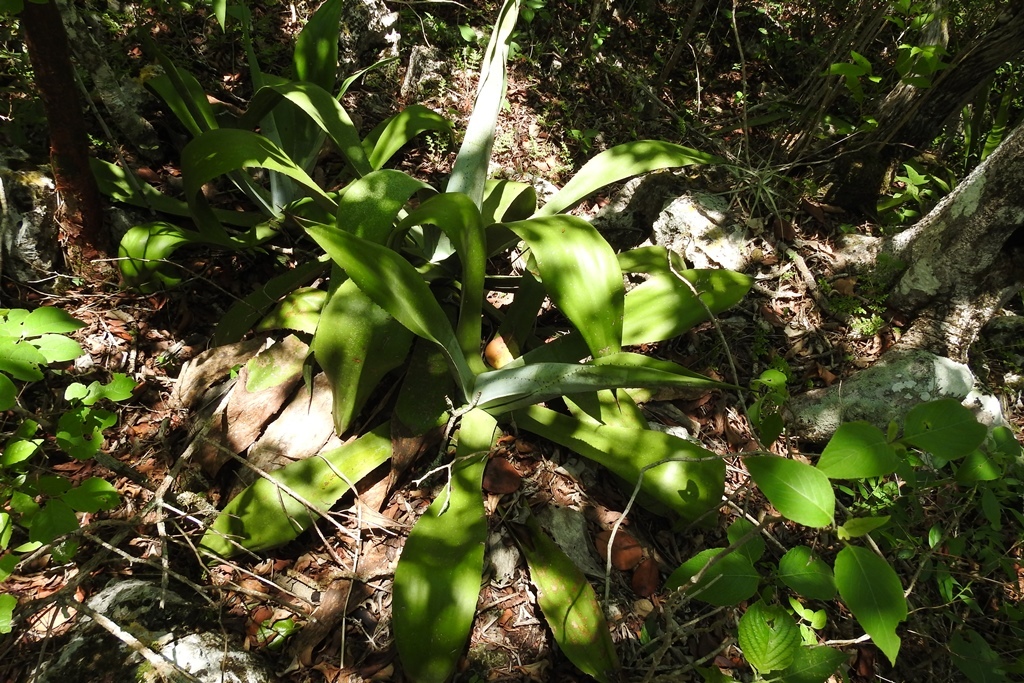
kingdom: Plantae
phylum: Tracheophyta
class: Liliopsida
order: Asparagales
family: Asparagaceae
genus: Agave
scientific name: Agave kewensis
